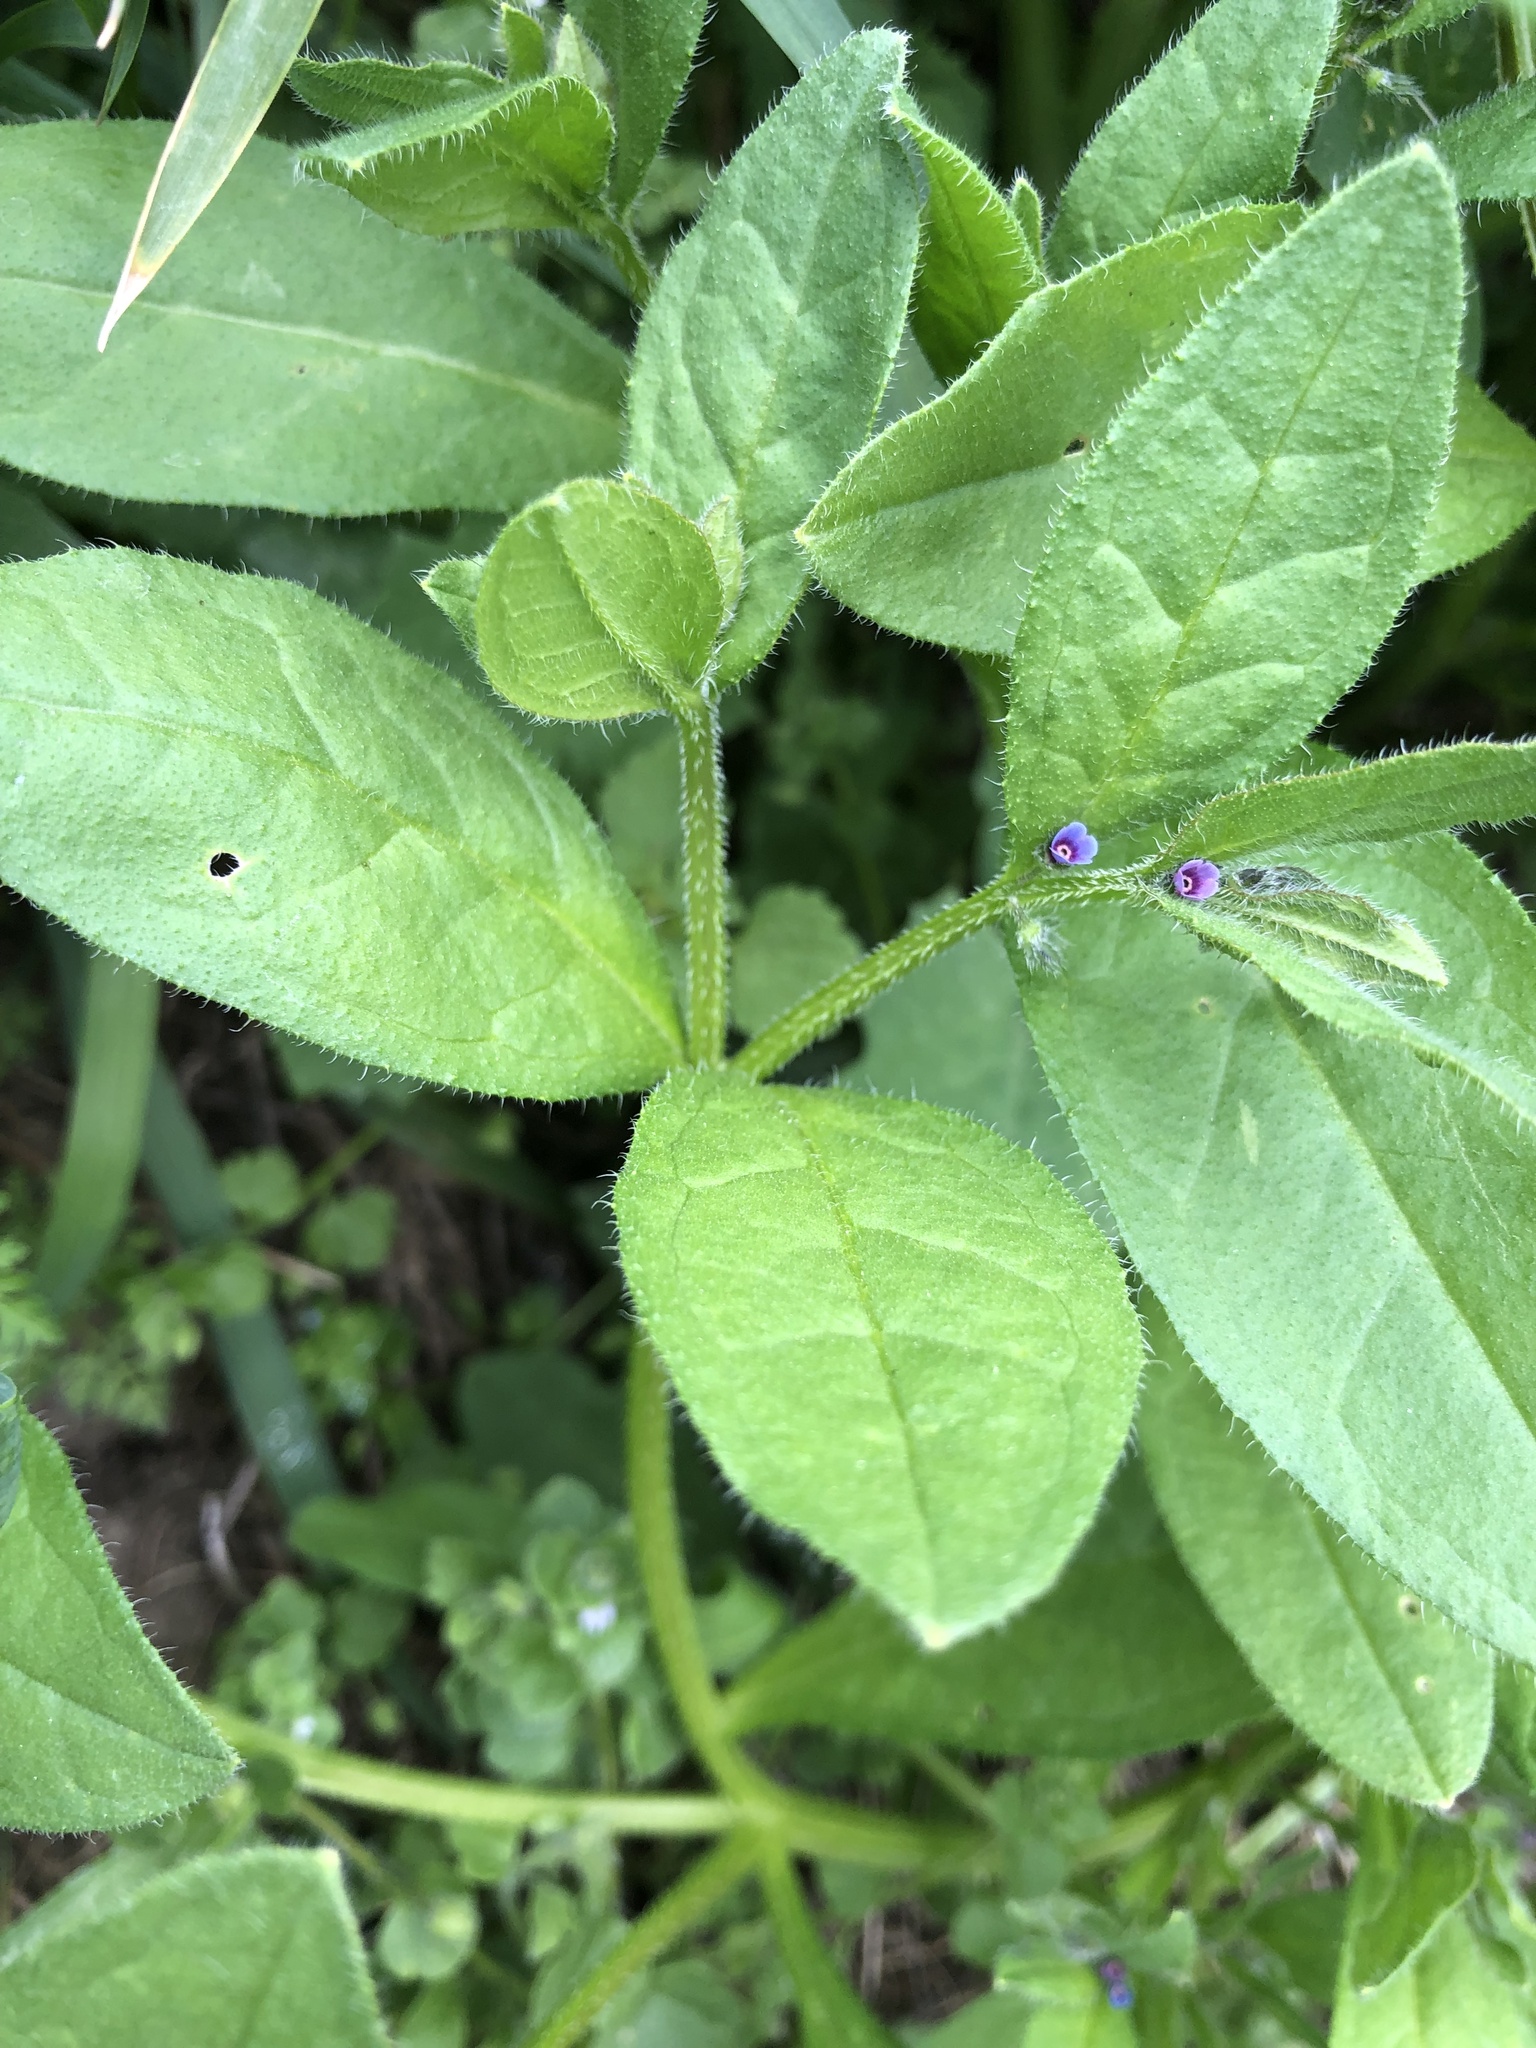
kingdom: Plantae
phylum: Tracheophyta
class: Magnoliopsida
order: Boraginales
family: Boraginaceae
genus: Asperugo
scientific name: Asperugo procumbens
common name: Madwort
